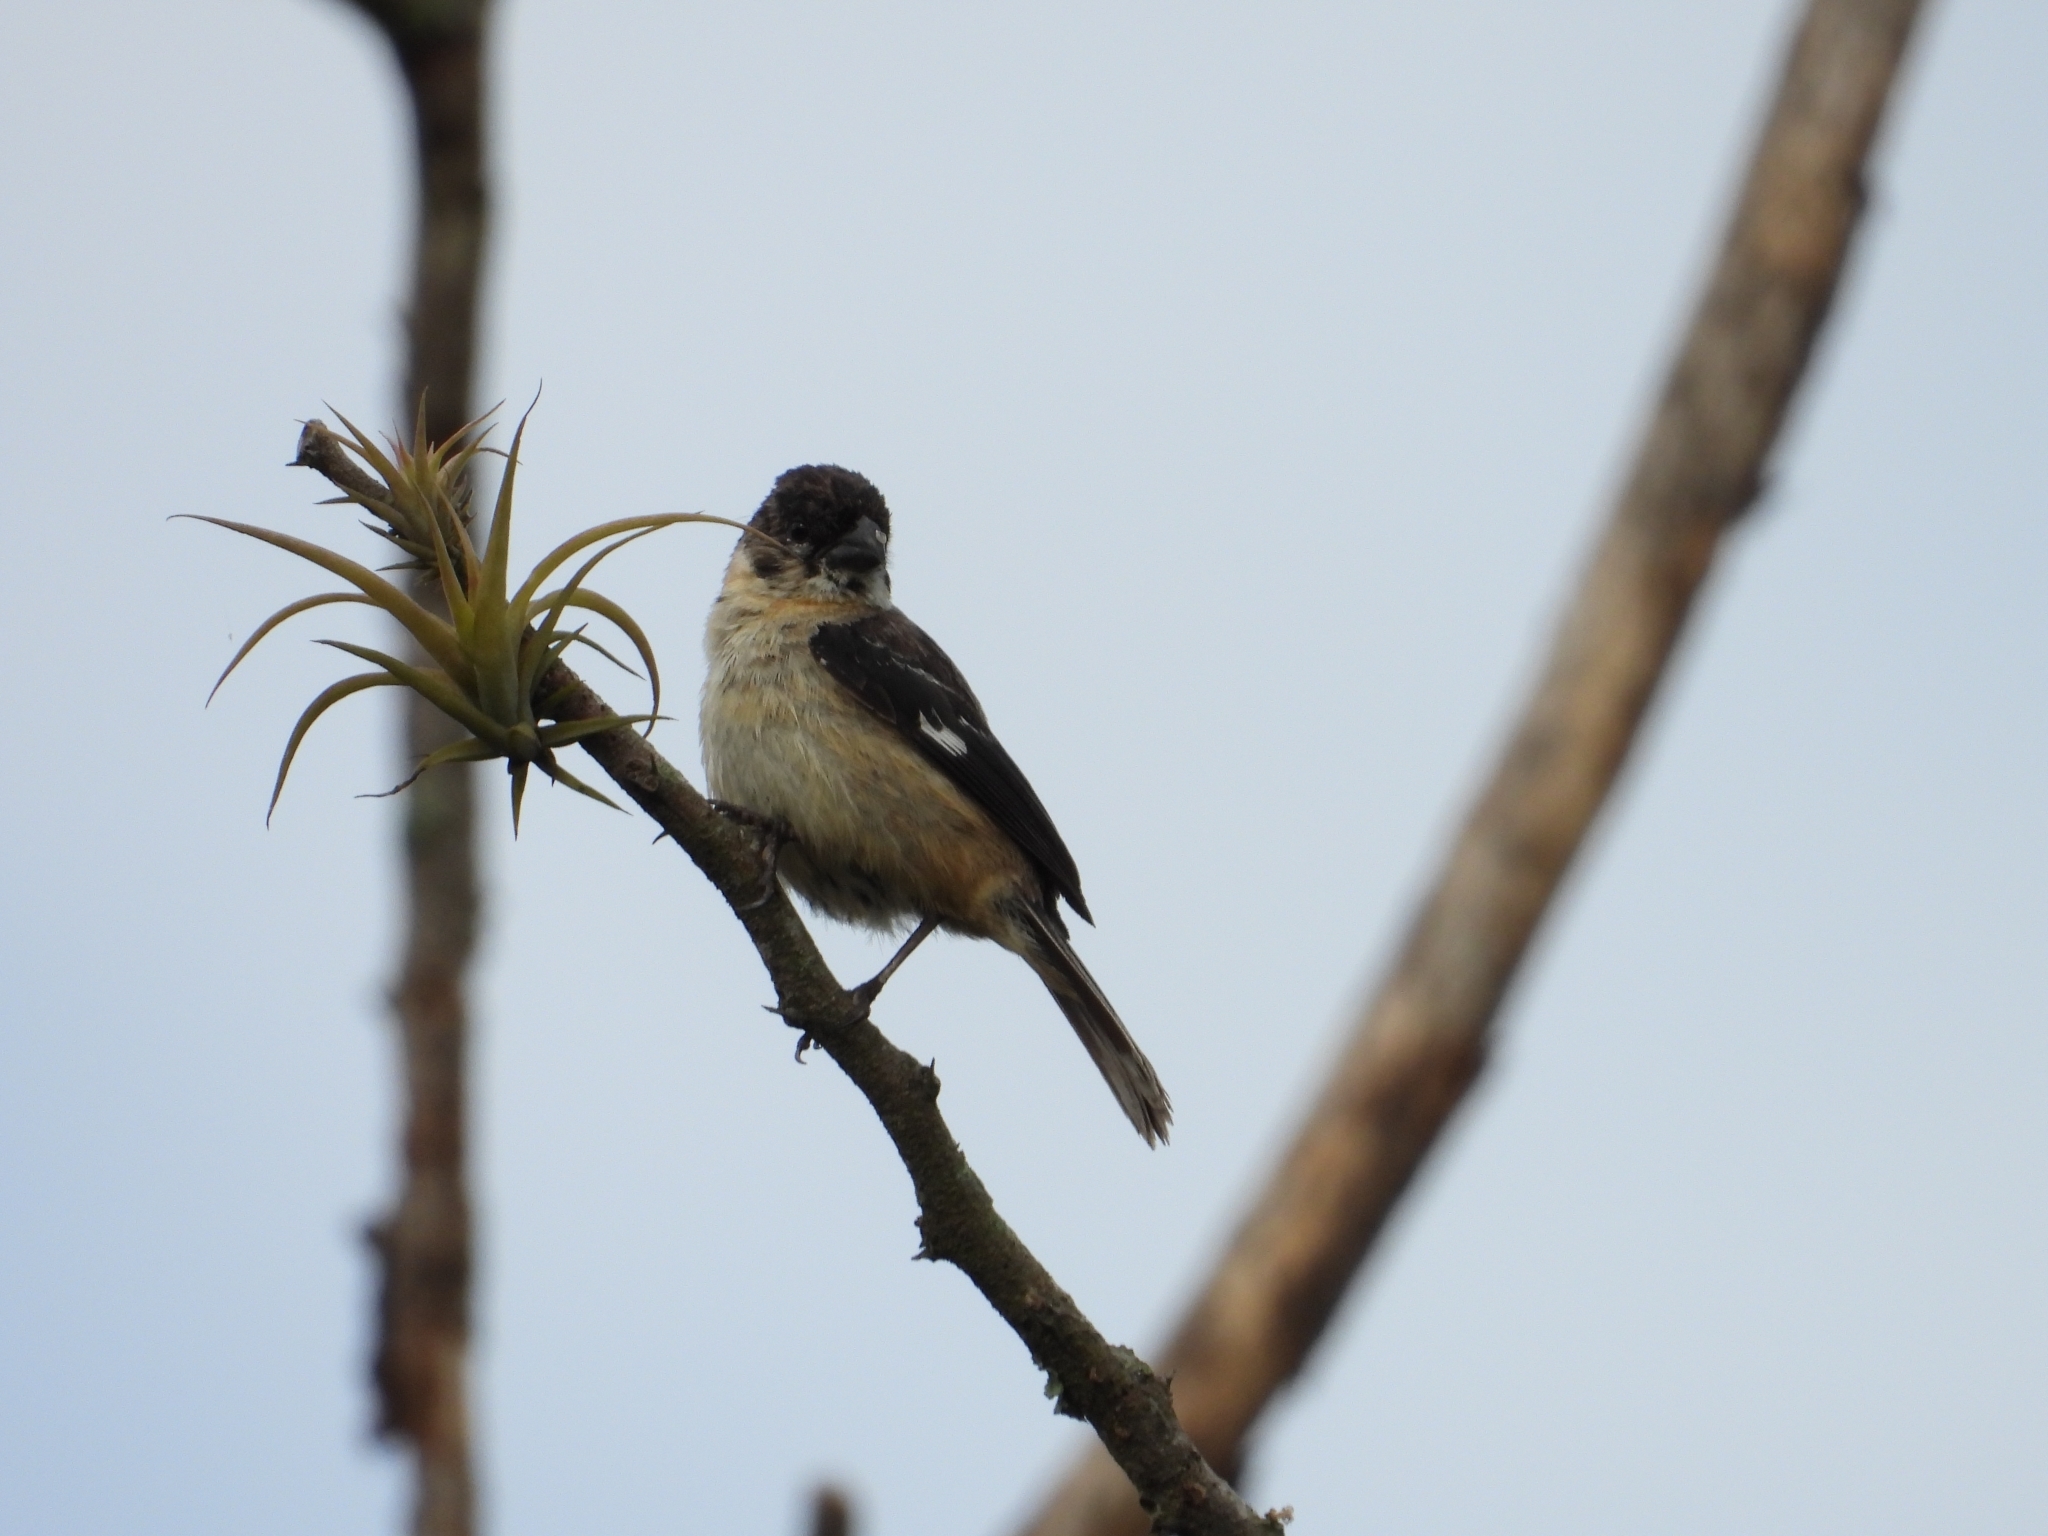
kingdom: Animalia
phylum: Chordata
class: Aves
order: Passeriformes
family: Thraupidae
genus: Sporophila
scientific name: Sporophila morelleti
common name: Morelet's seedeater
